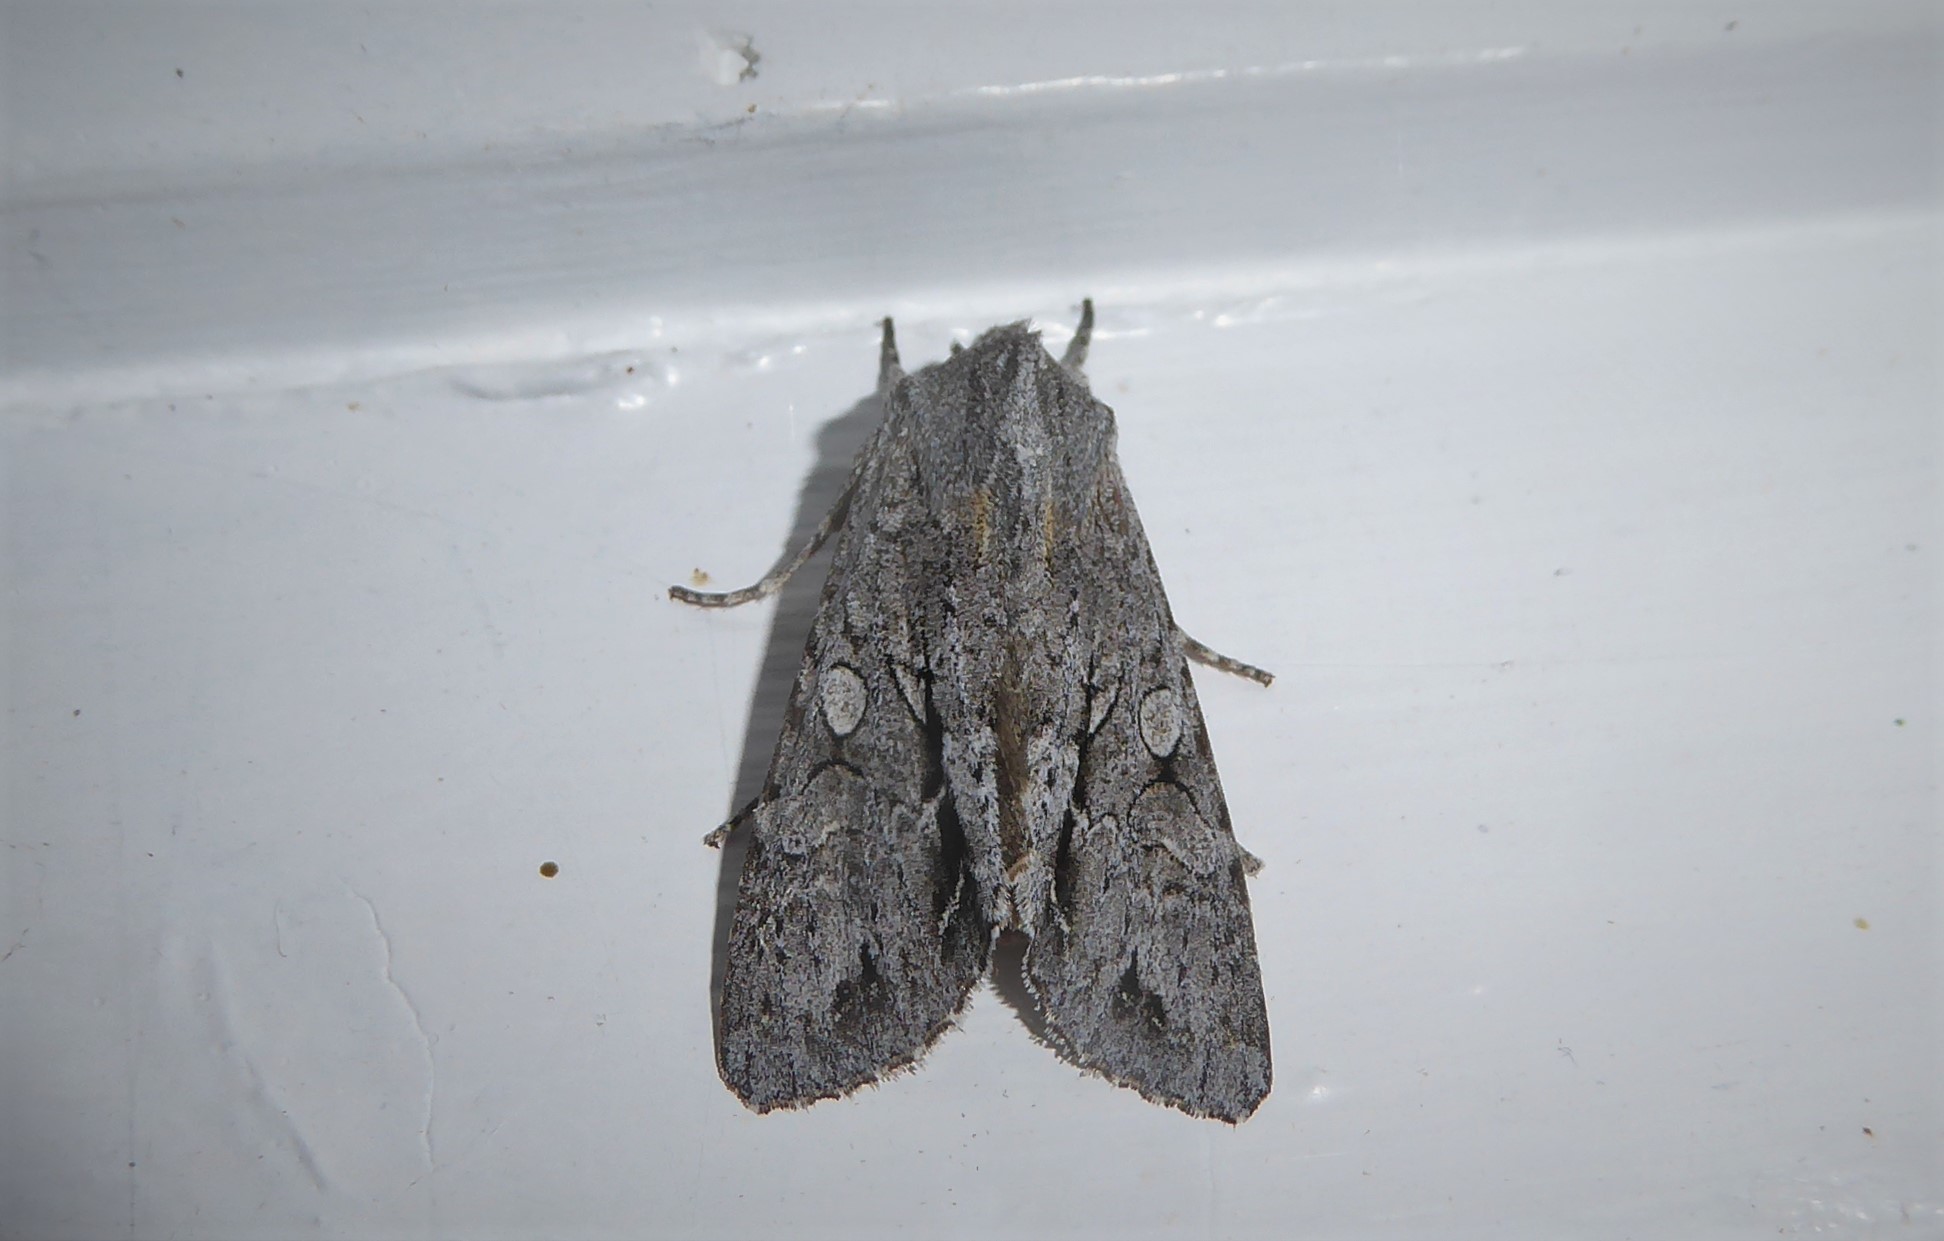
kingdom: Animalia
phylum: Arthropoda
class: Insecta
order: Lepidoptera
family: Noctuidae
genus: Ichneutica
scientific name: Ichneutica
